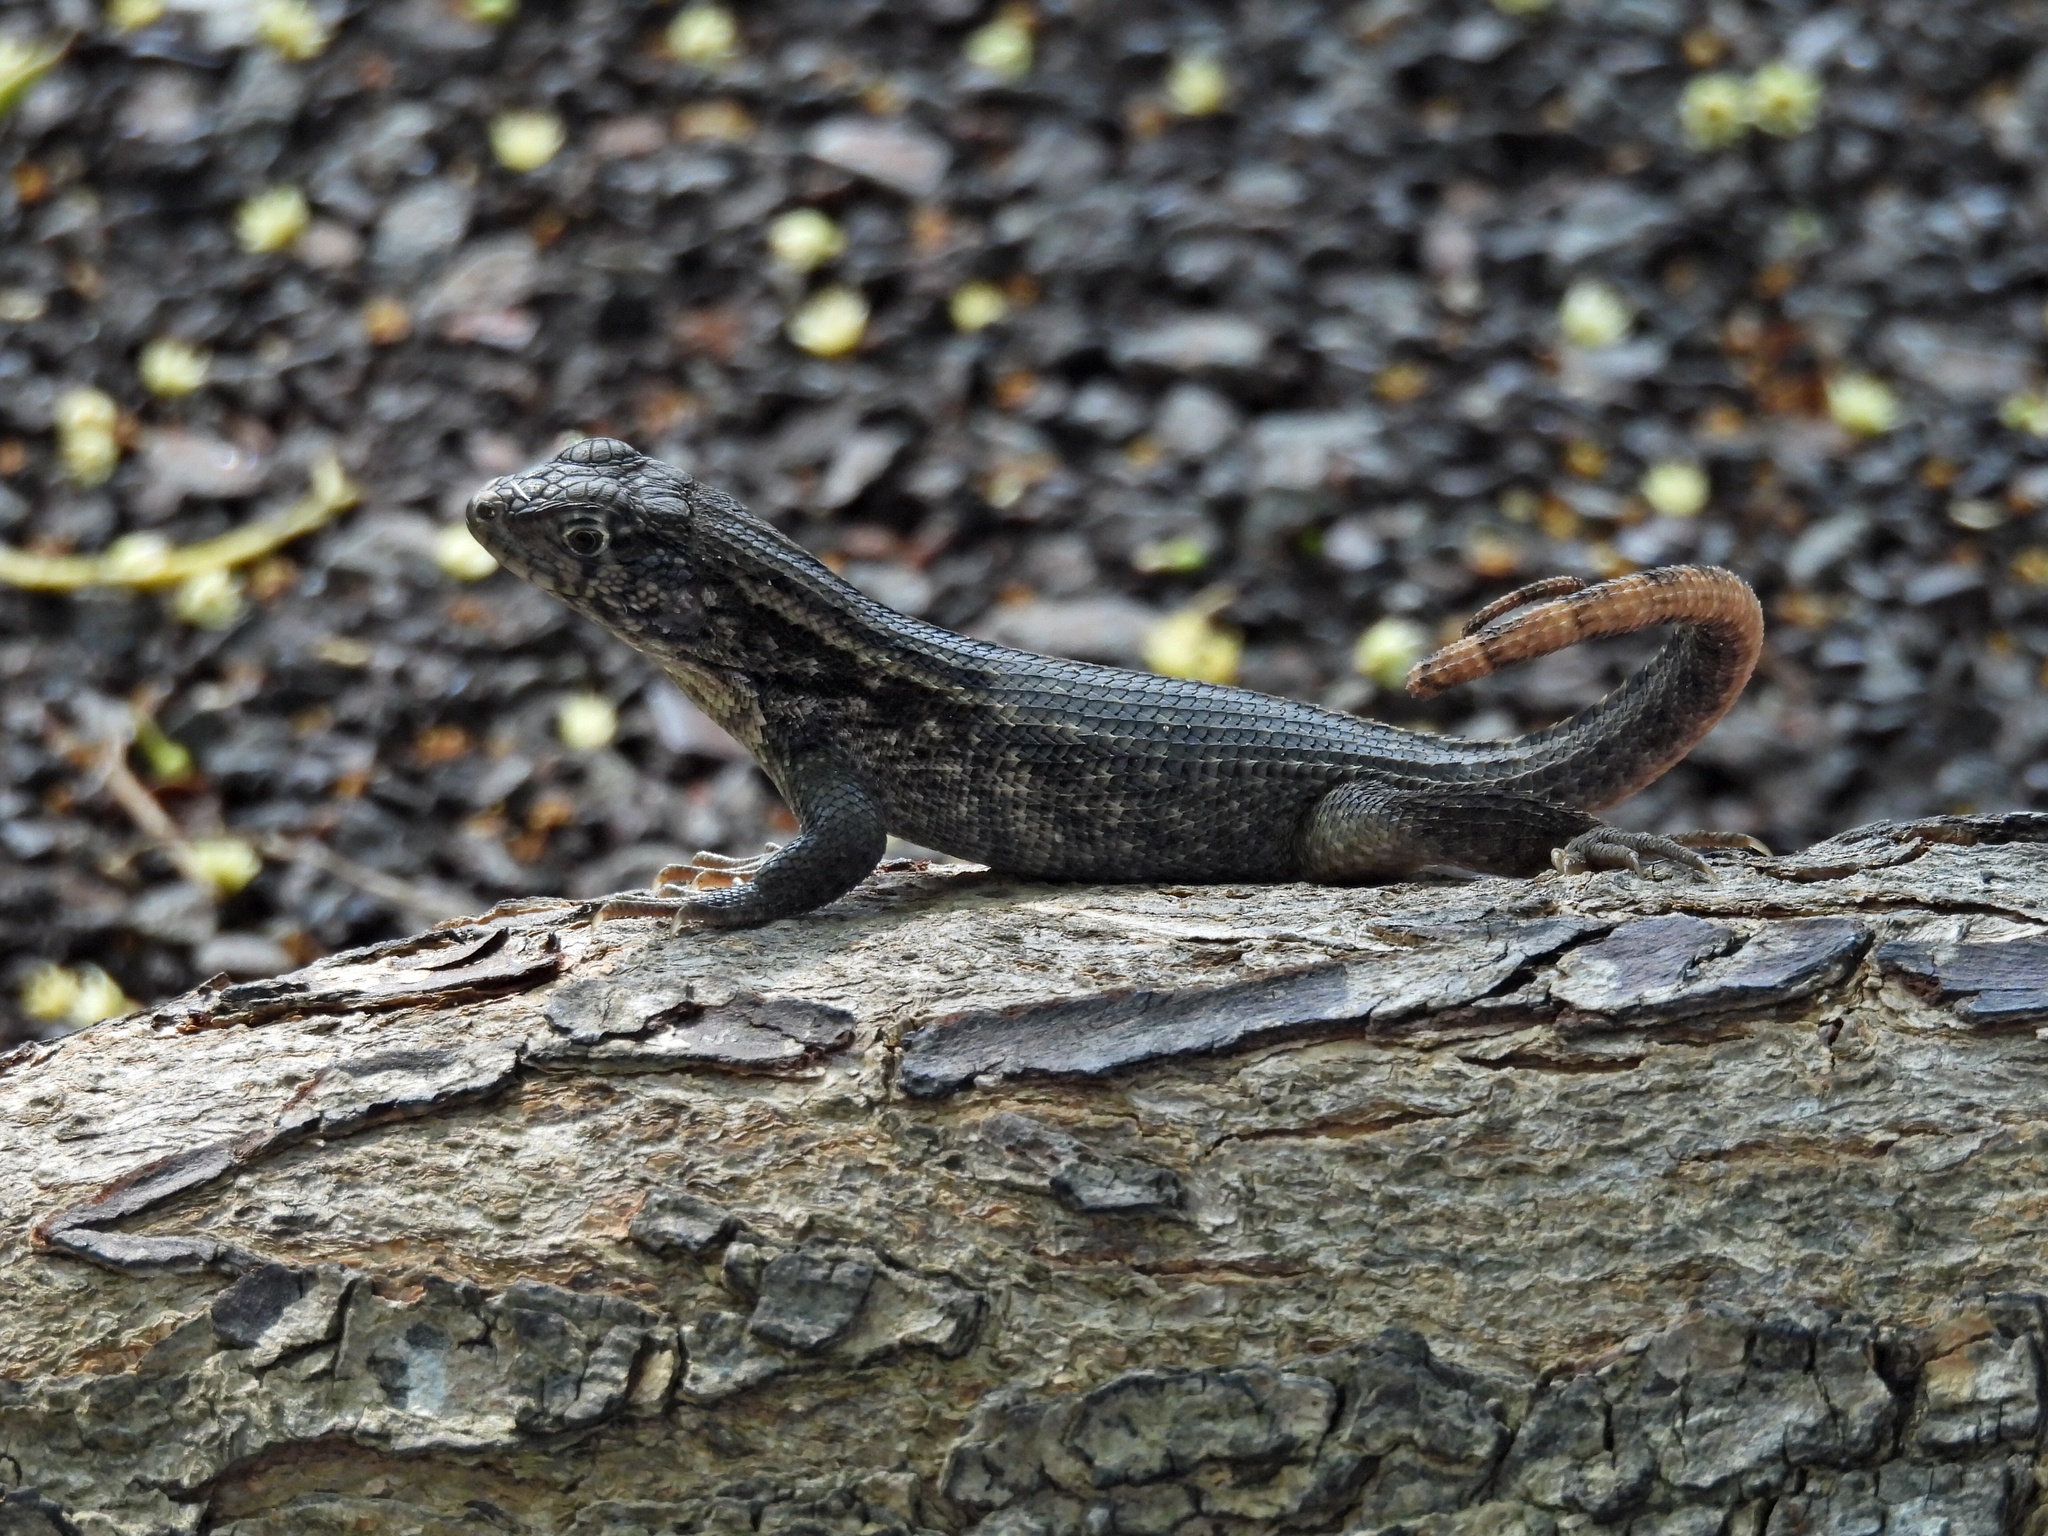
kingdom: Animalia
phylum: Chordata
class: Squamata
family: Leiocephalidae
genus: Leiocephalus
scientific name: Leiocephalus carinatus
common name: Northern curly-tailed lizard
